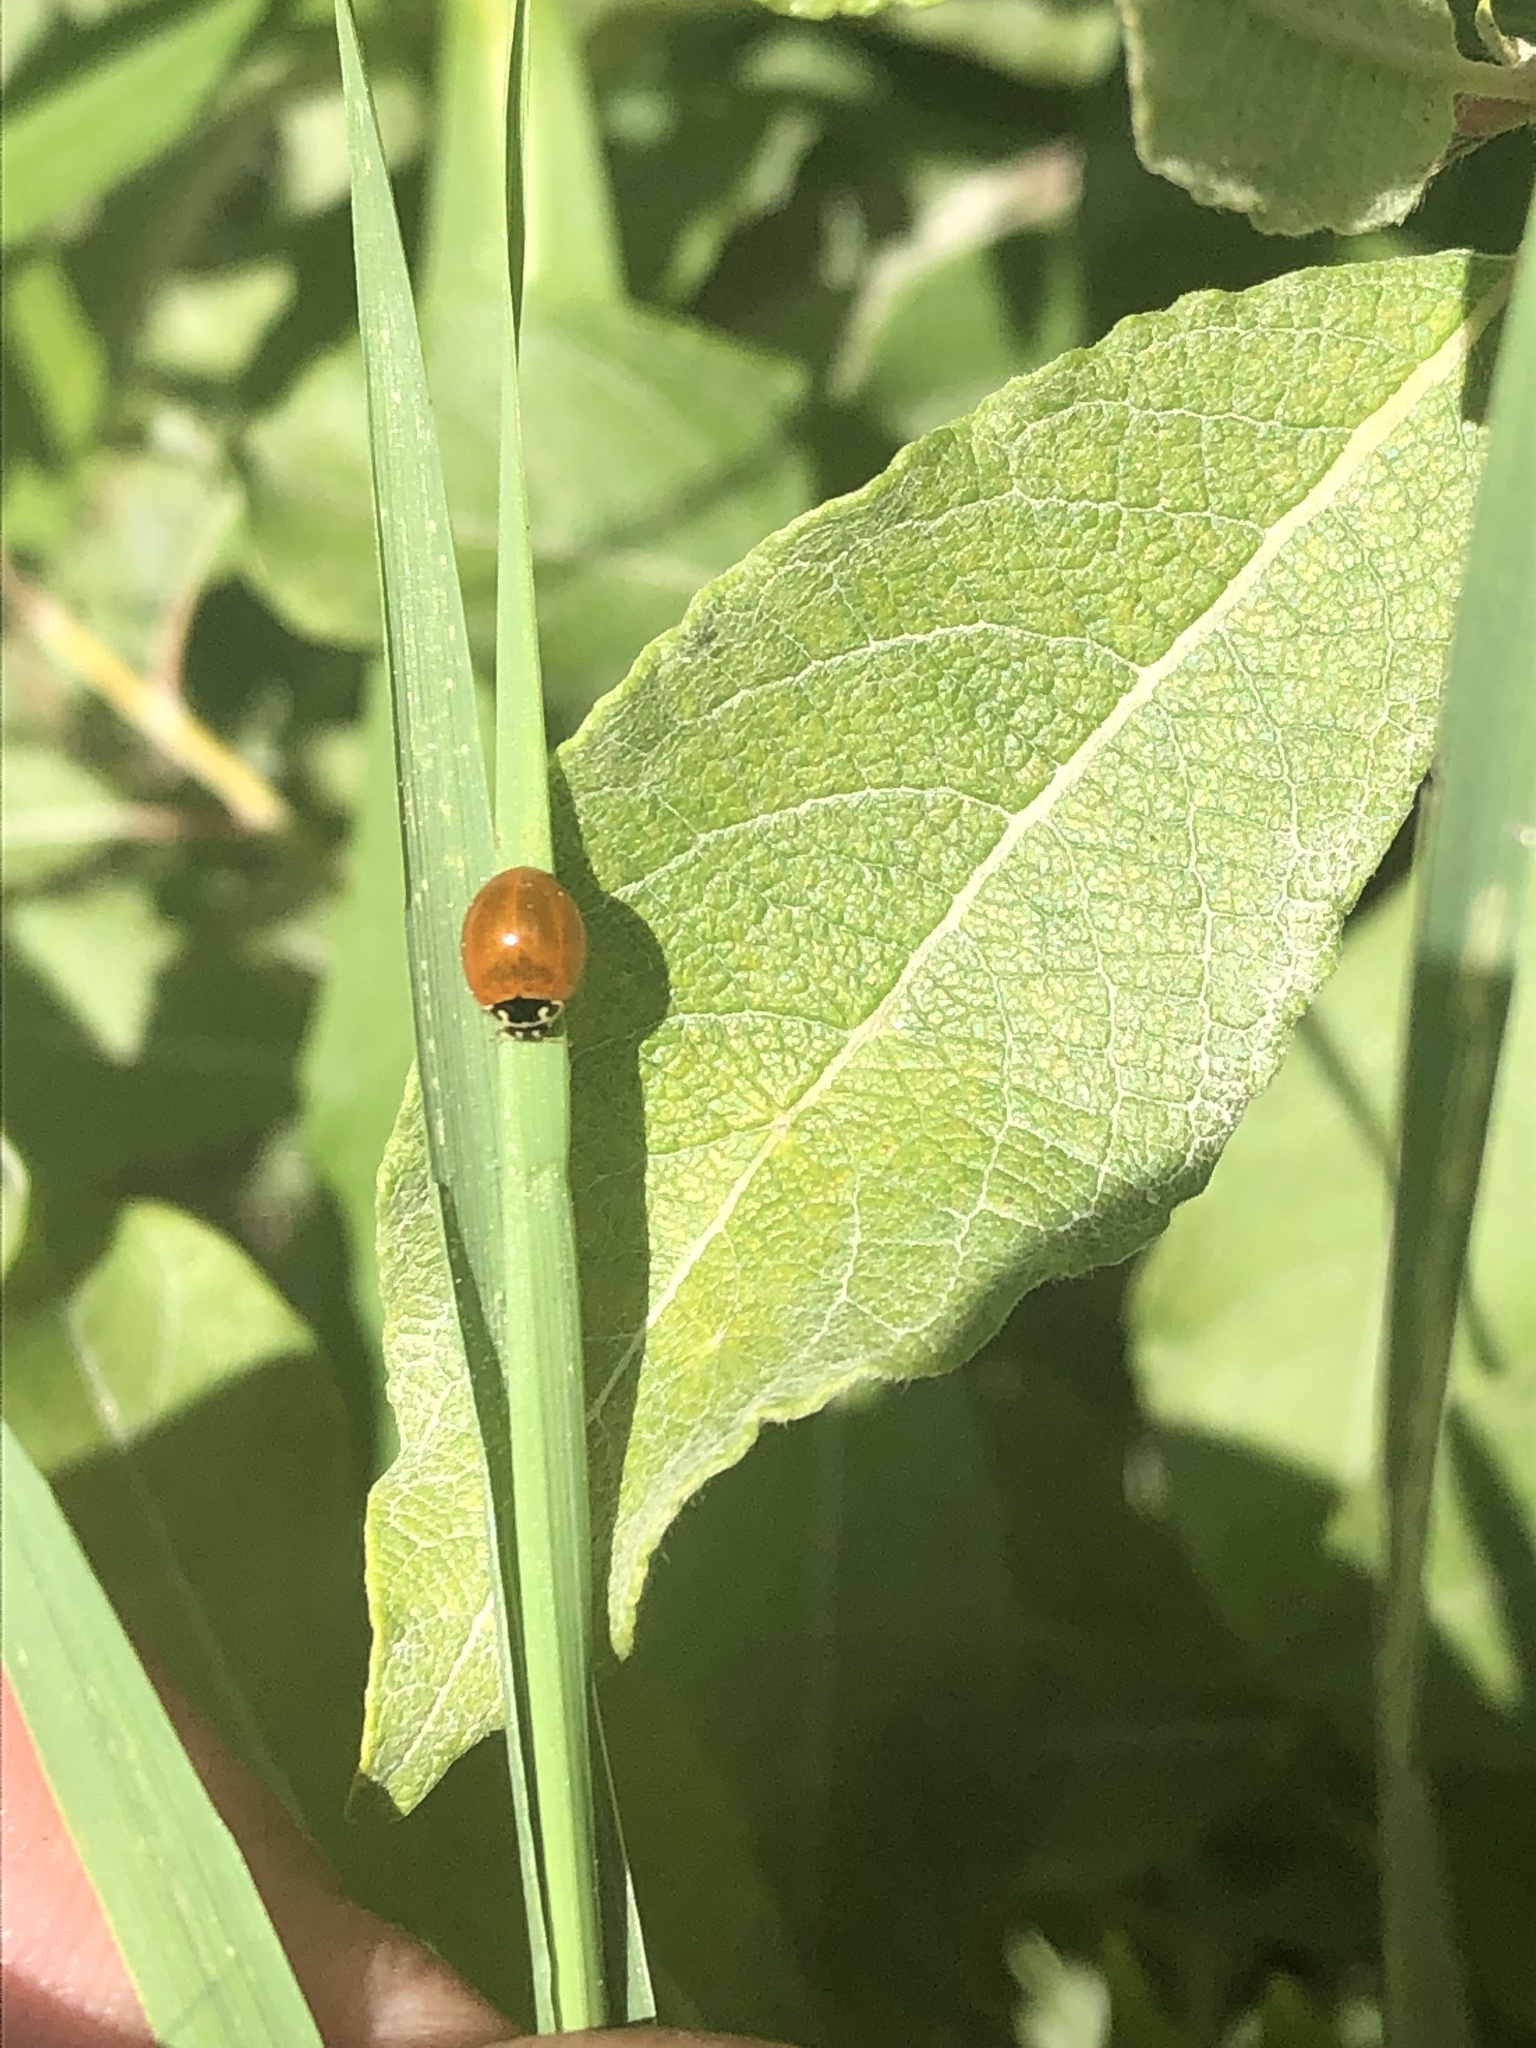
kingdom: Animalia
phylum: Arthropoda
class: Insecta
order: Coleoptera
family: Coccinellidae
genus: Cycloneda
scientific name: Cycloneda munda
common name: Polished lady beetle
